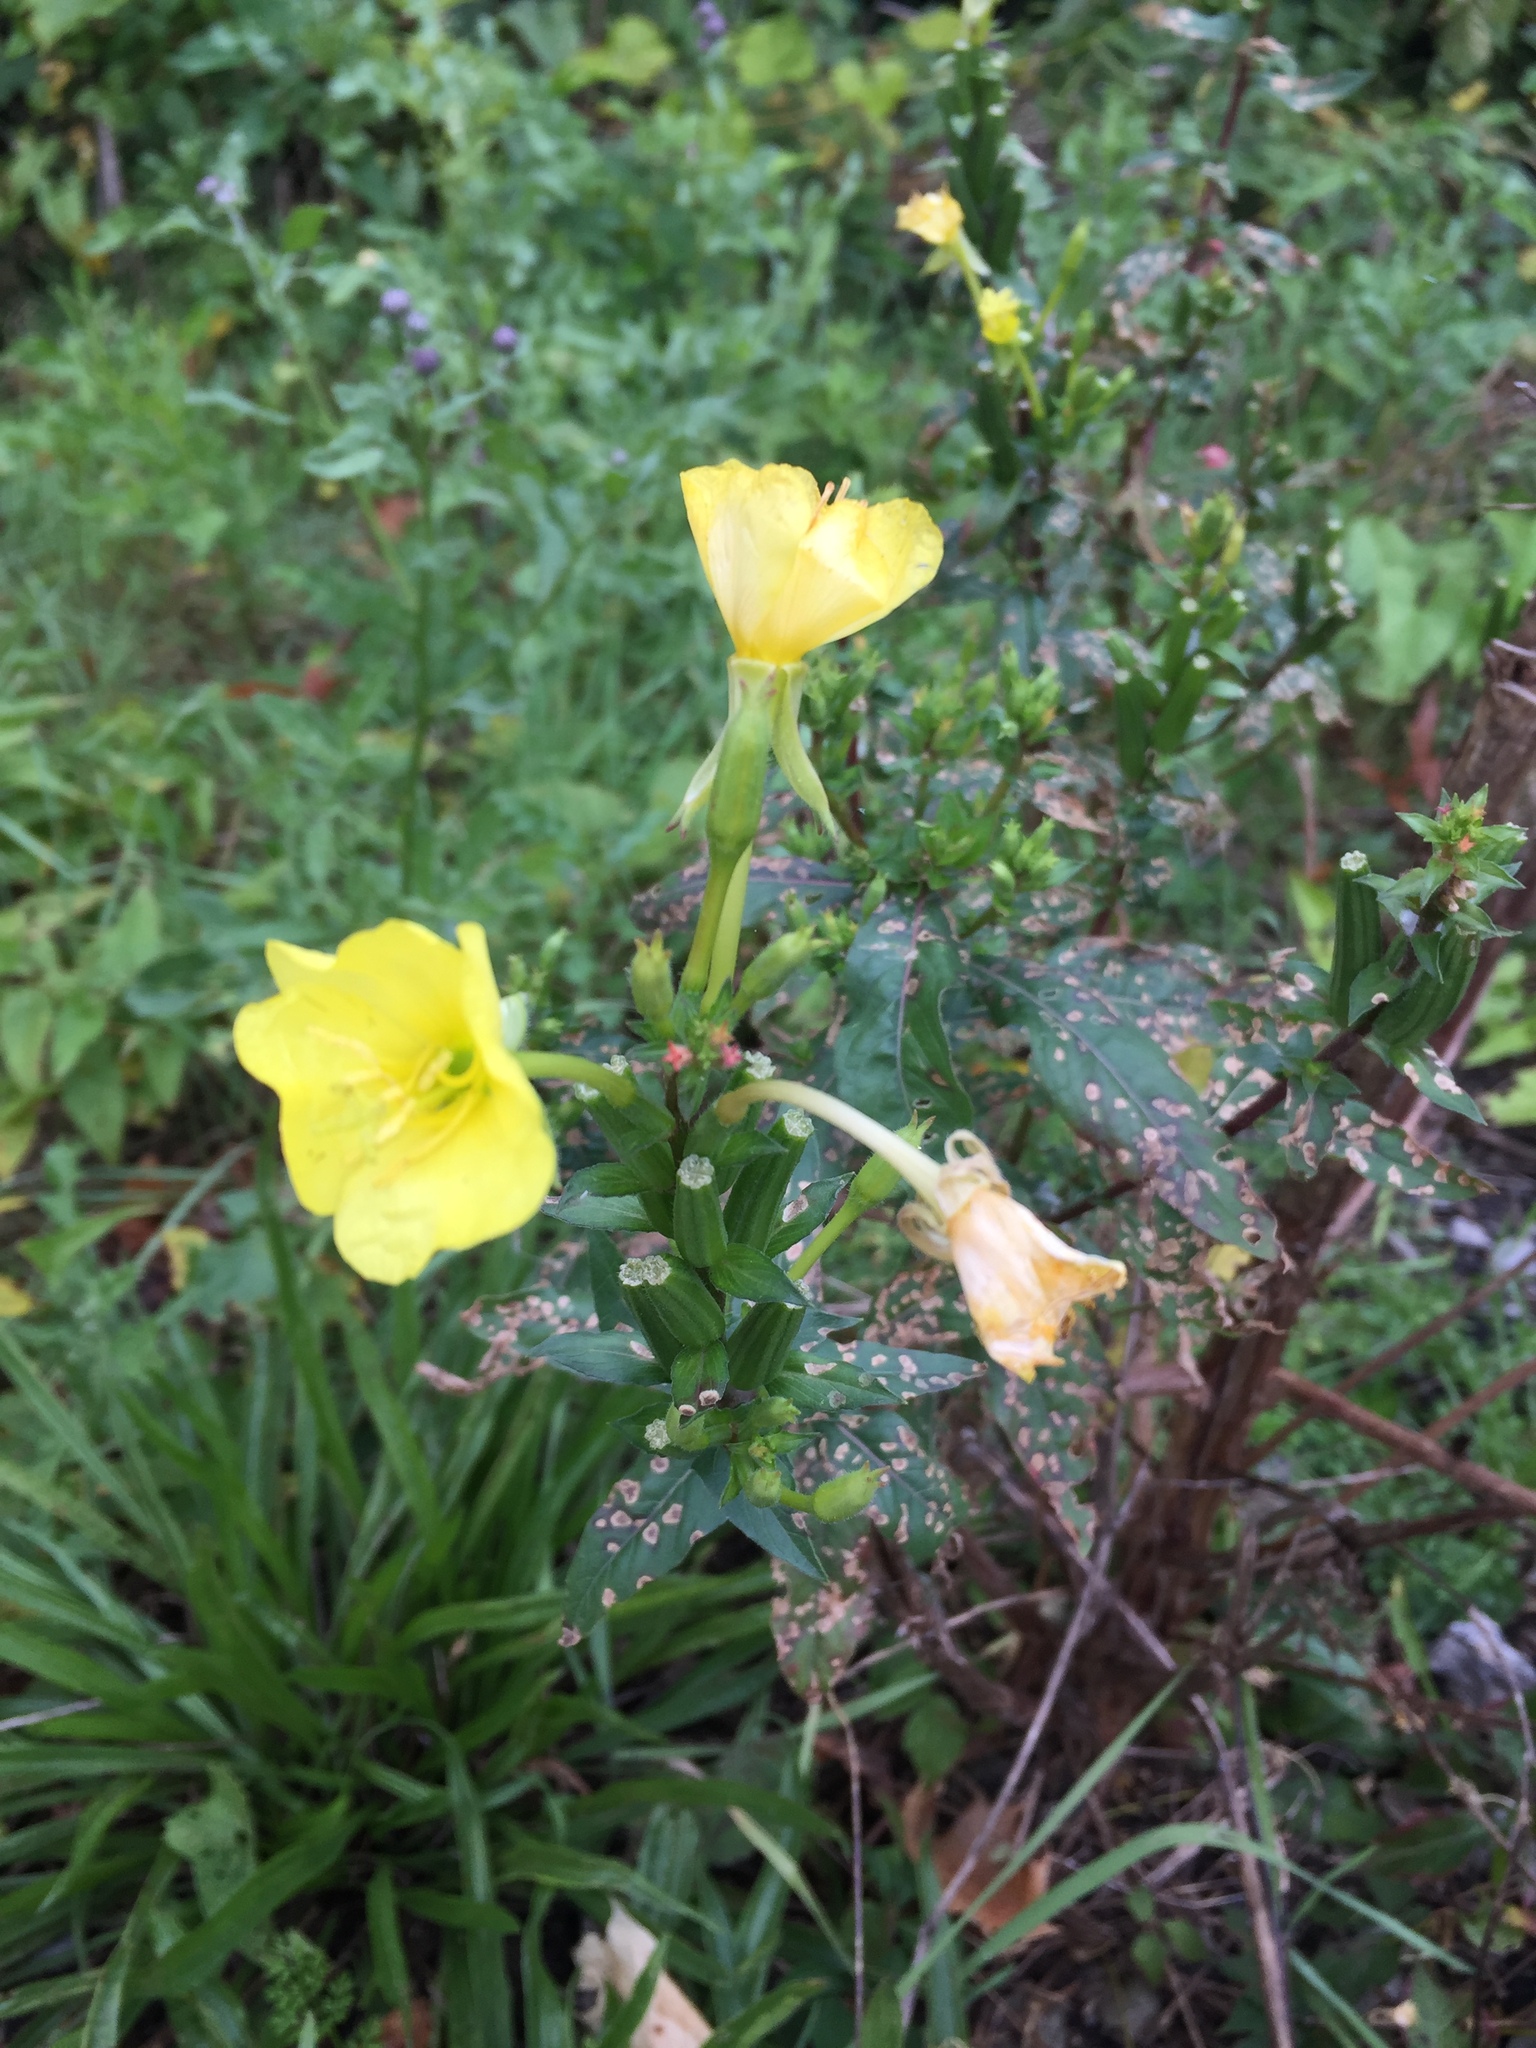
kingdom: Plantae
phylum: Tracheophyta
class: Magnoliopsida
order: Myrtales
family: Onagraceae
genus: Oenothera
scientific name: Oenothera biennis
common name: Common evening-primrose
